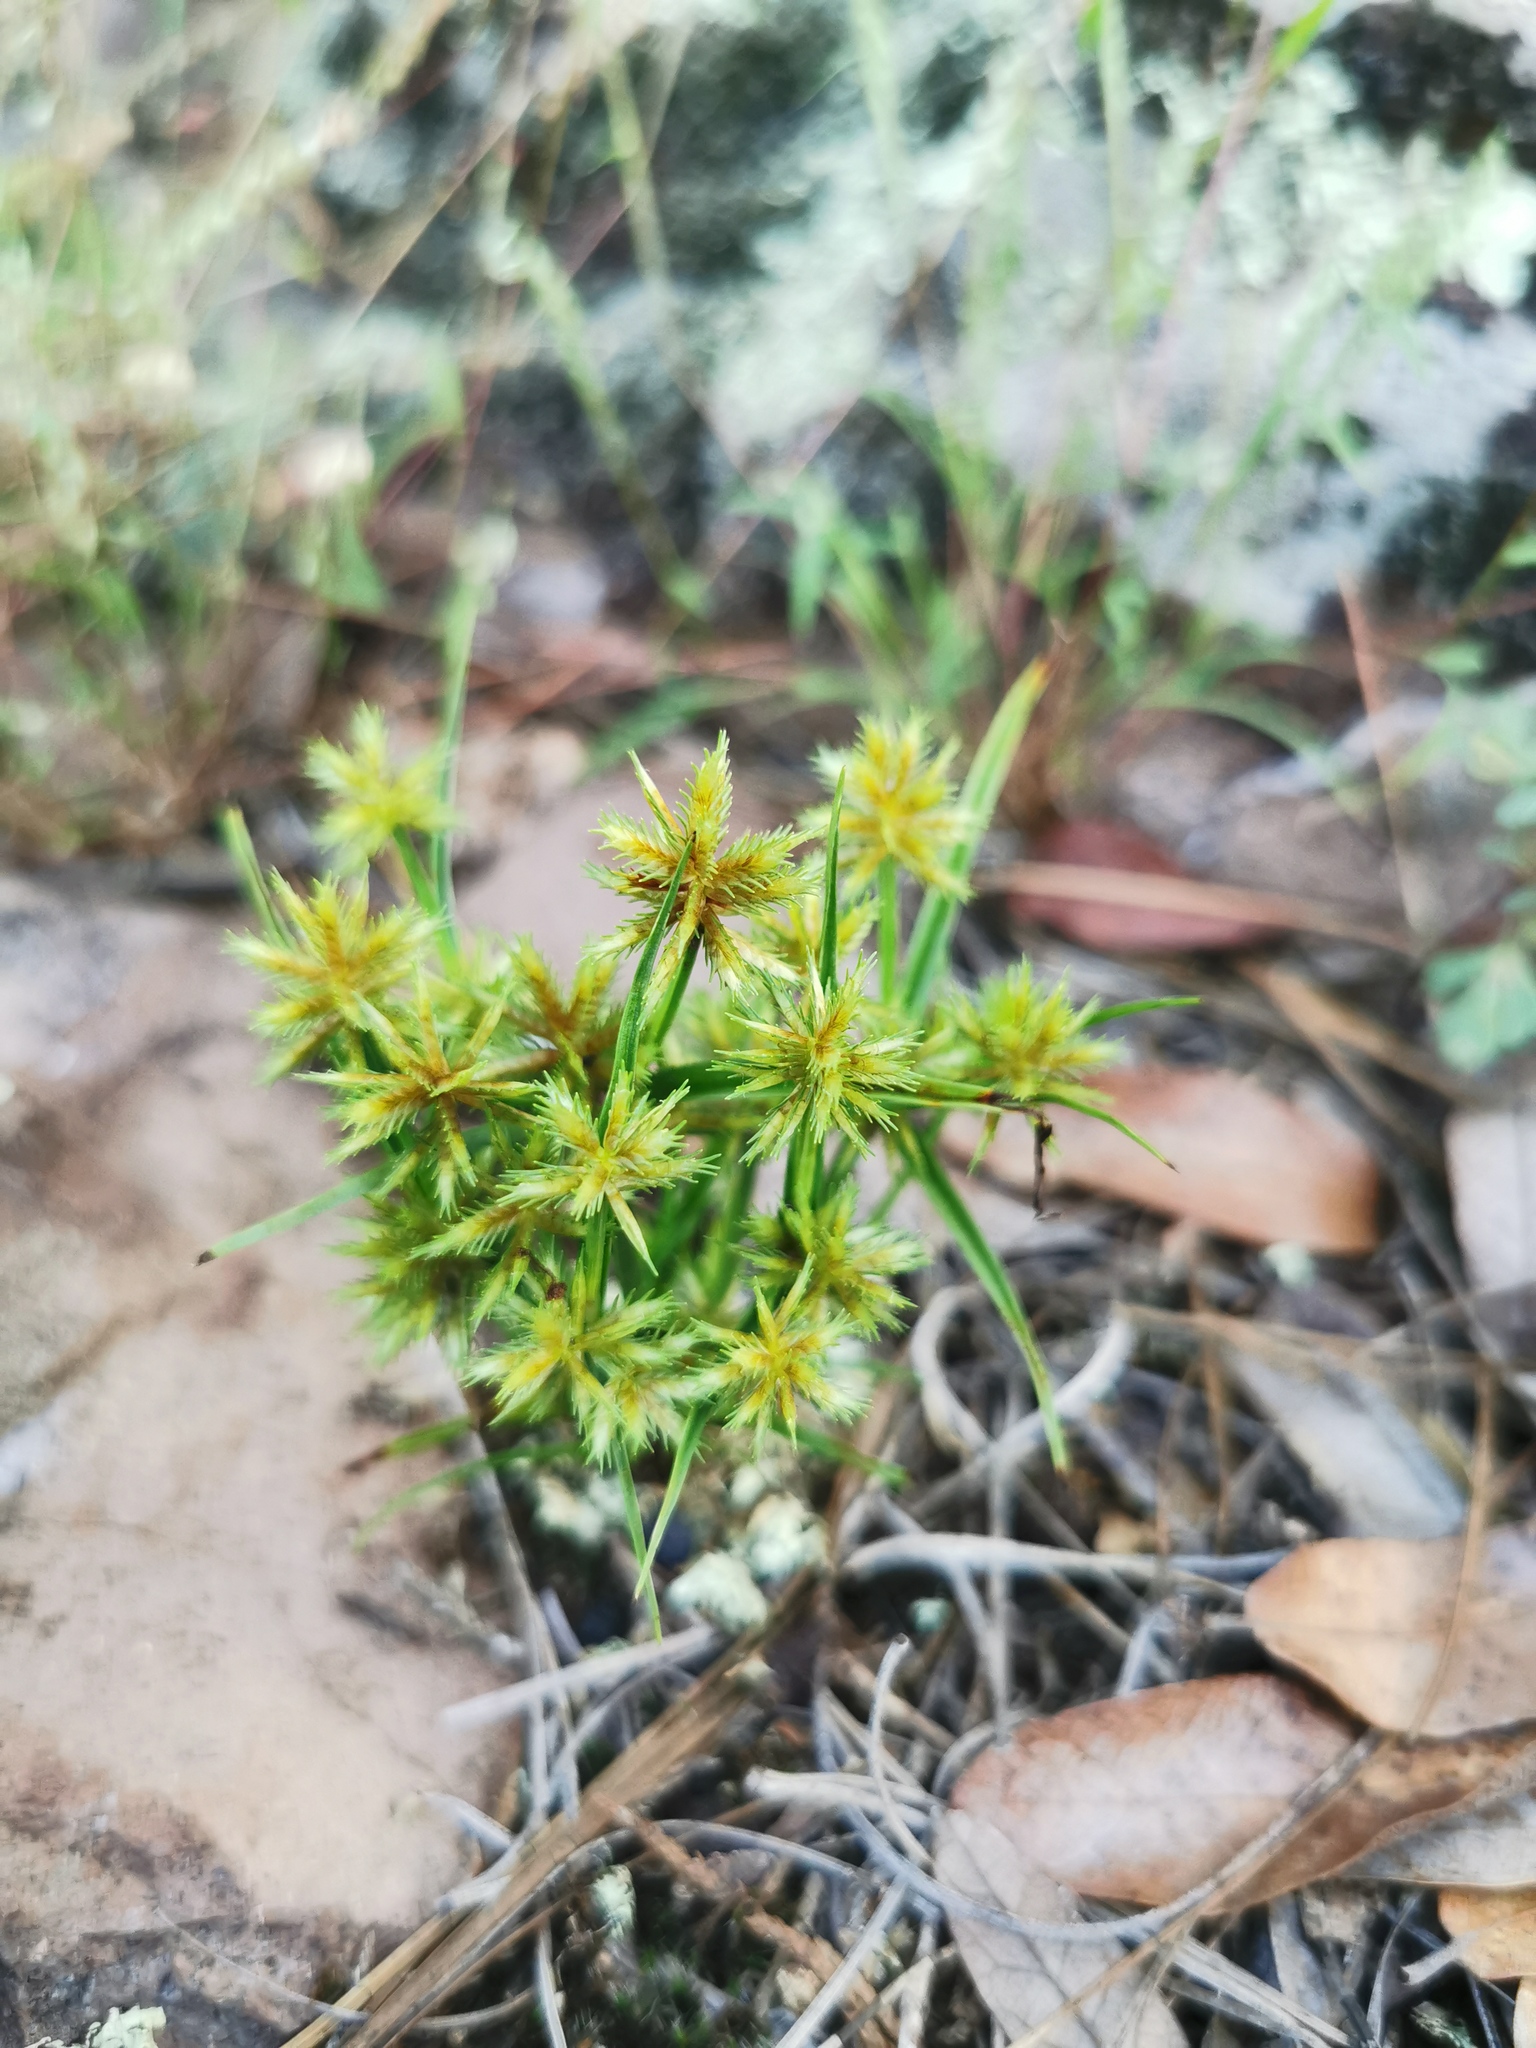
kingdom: Plantae
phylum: Tracheophyta
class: Liliopsida
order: Poales
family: Cyperaceae
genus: Cyperus
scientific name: Cyperus squarrosus
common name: Awned cyperus
